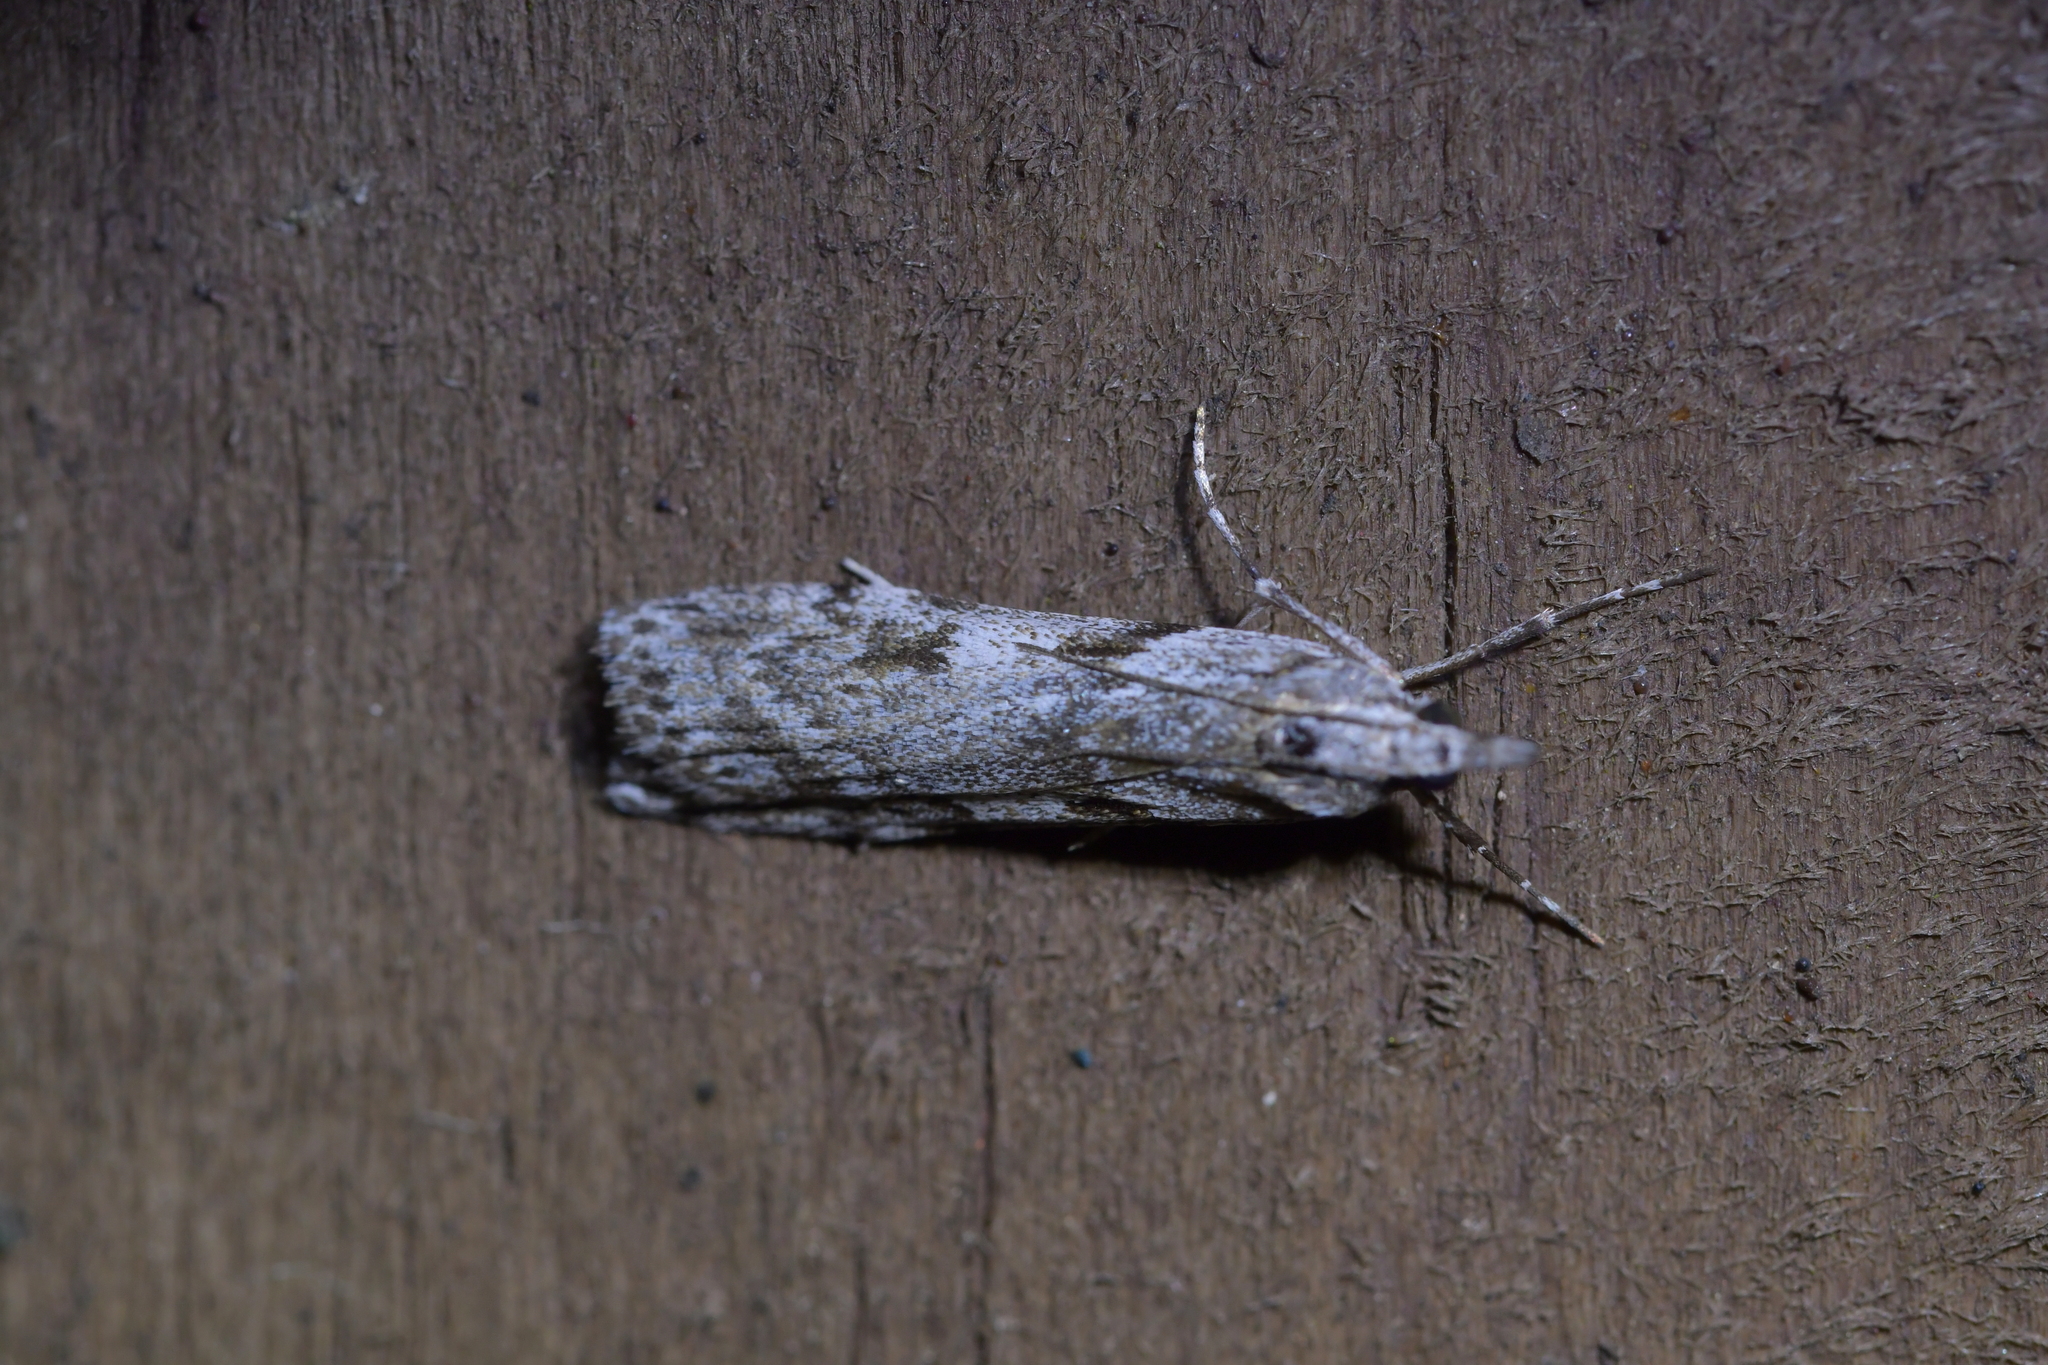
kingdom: Animalia
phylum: Arthropoda
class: Insecta
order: Lepidoptera
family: Crambidae
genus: Scoparia
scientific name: Scoparia halopis
